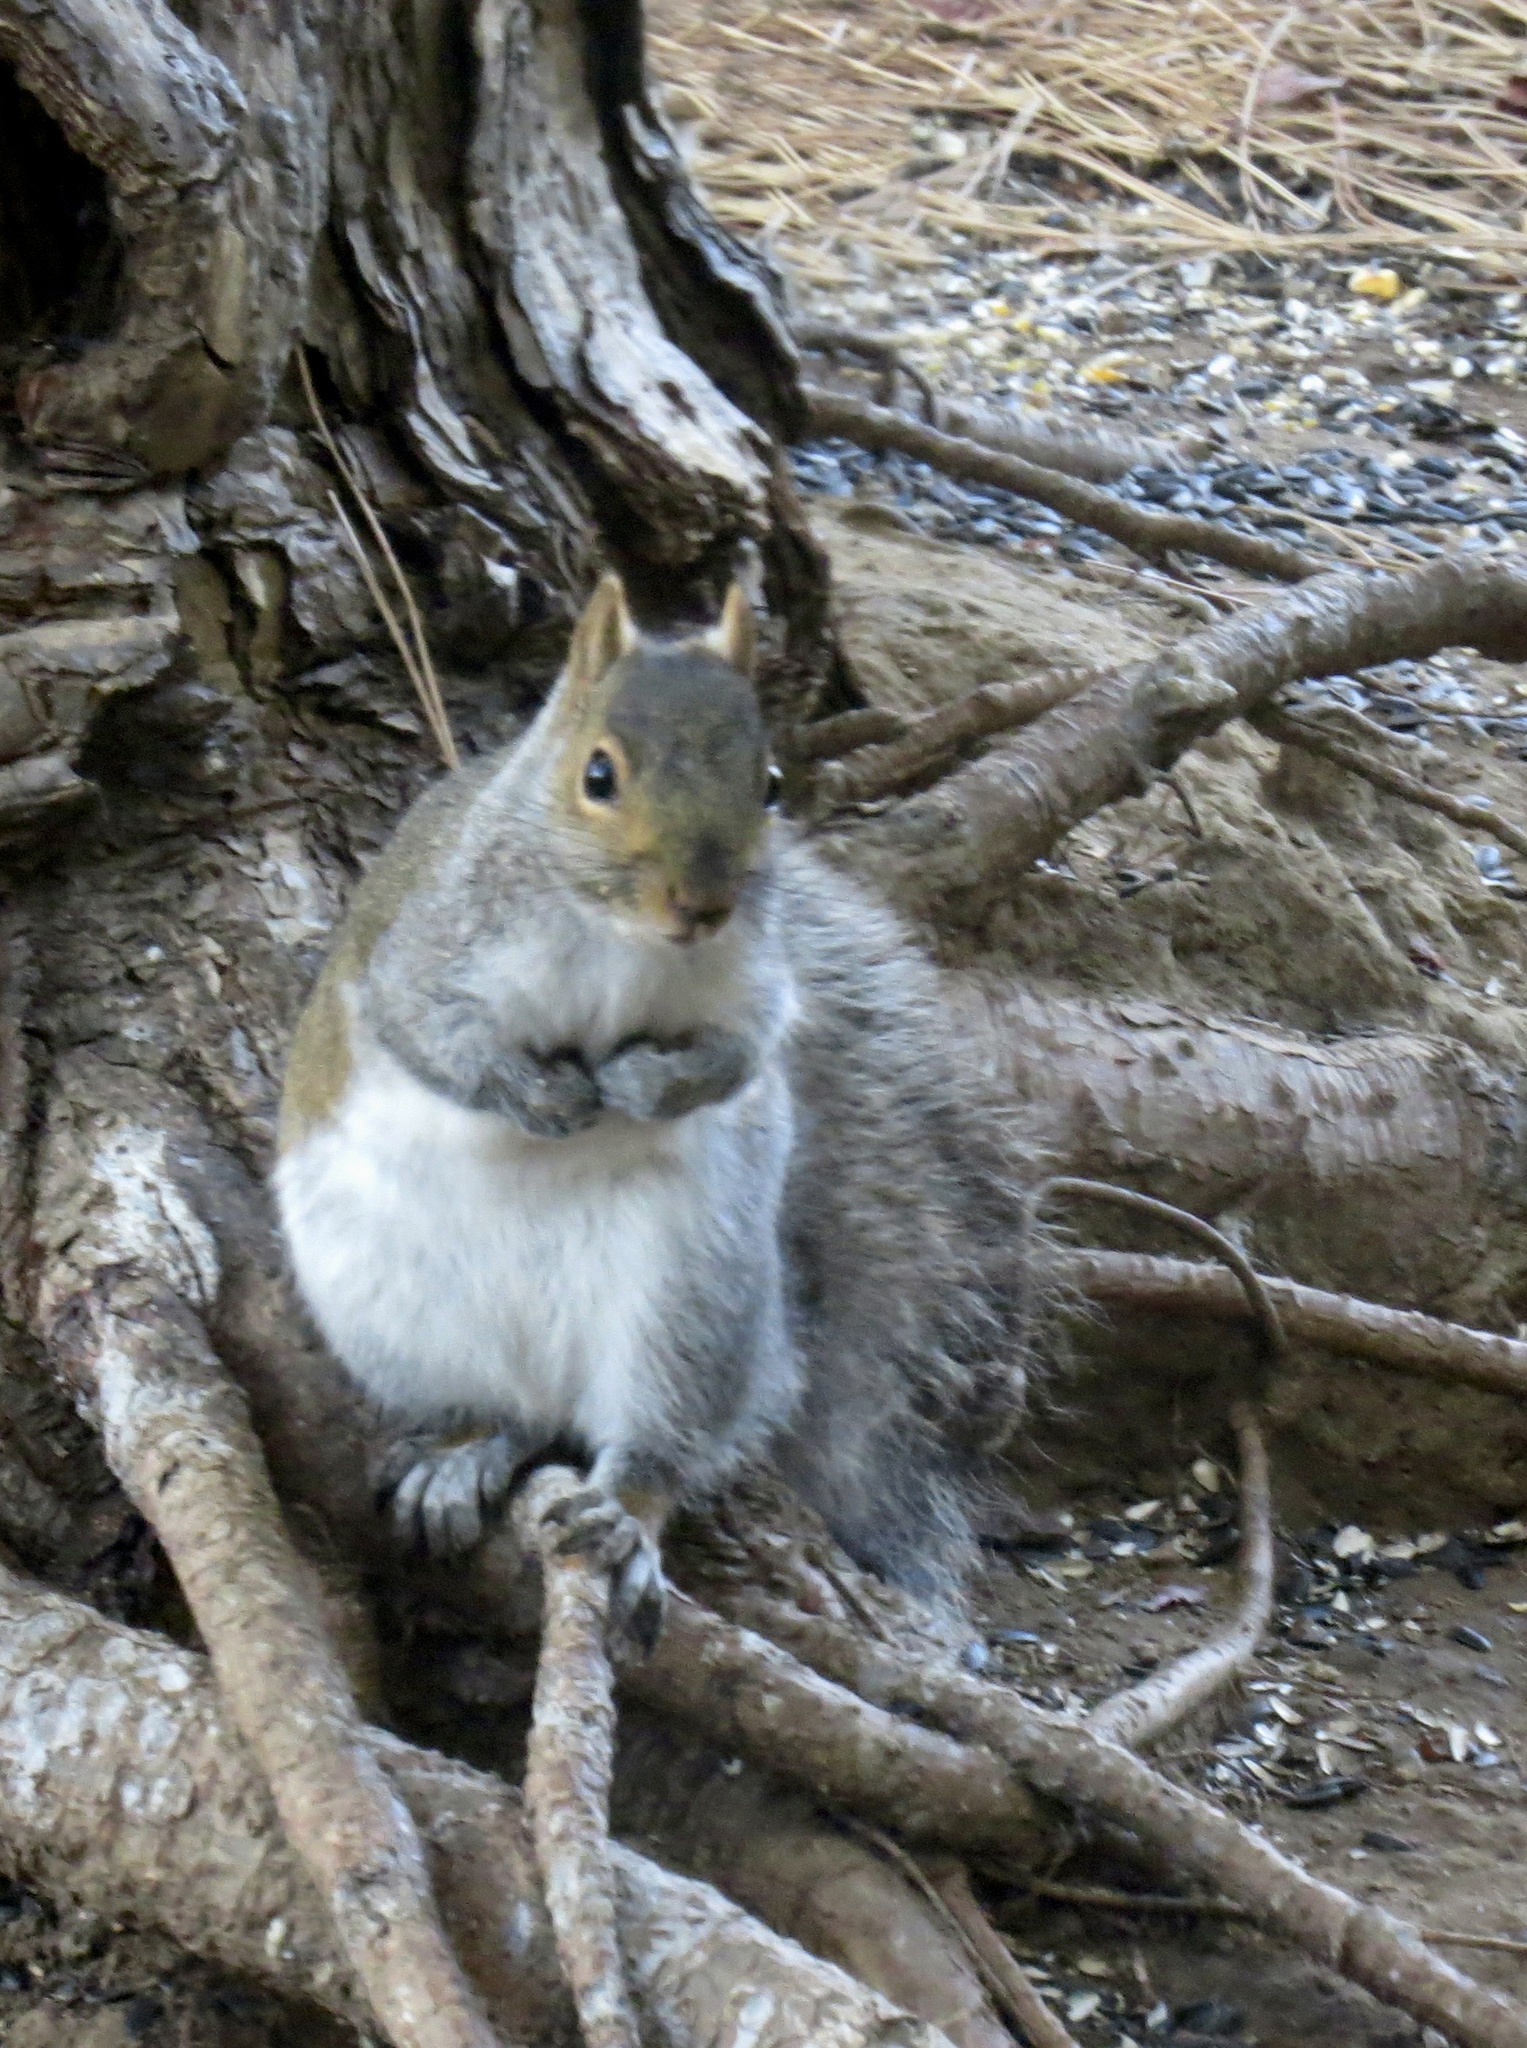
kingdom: Animalia
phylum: Chordata
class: Mammalia
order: Rodentia
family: Sciuridae
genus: Sciurus
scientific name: Sciurus carolinensis
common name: Eastern gray squirrel
